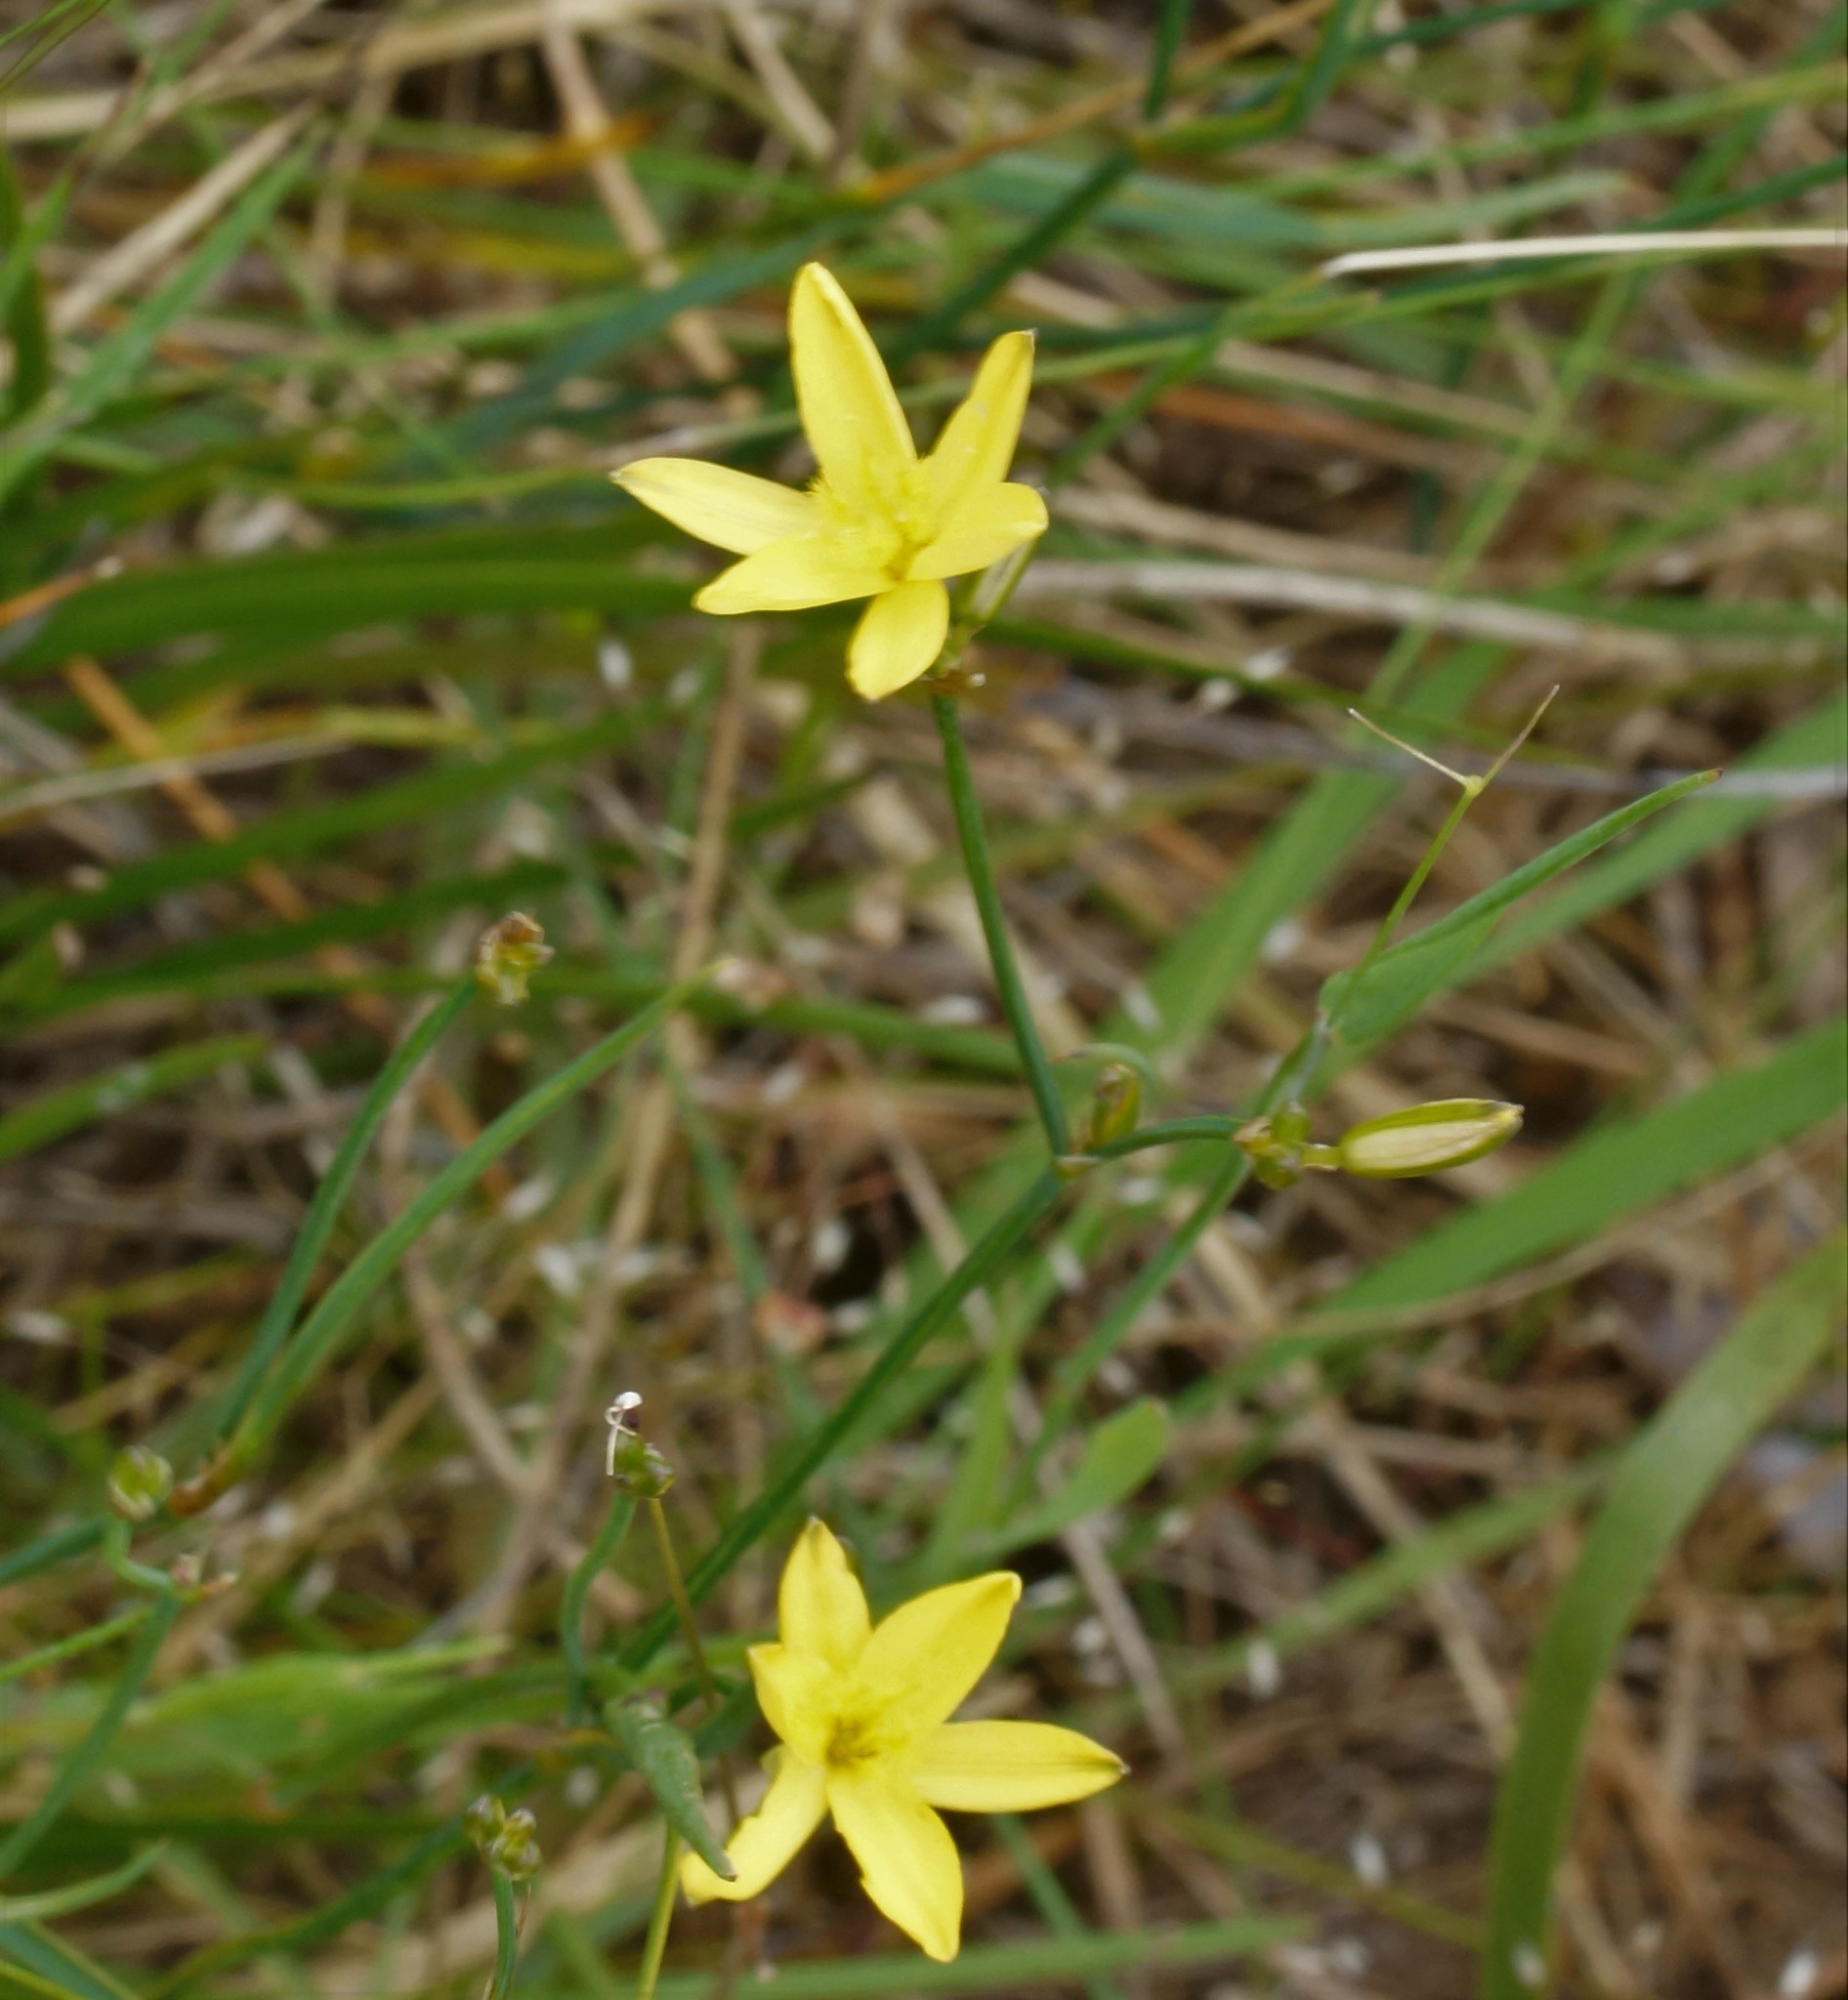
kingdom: Plantae
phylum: Tracheophyta
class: Liliopsida
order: Asparagales
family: Asphodelaceae
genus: Tricoryne
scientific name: Tricoryne elatior
